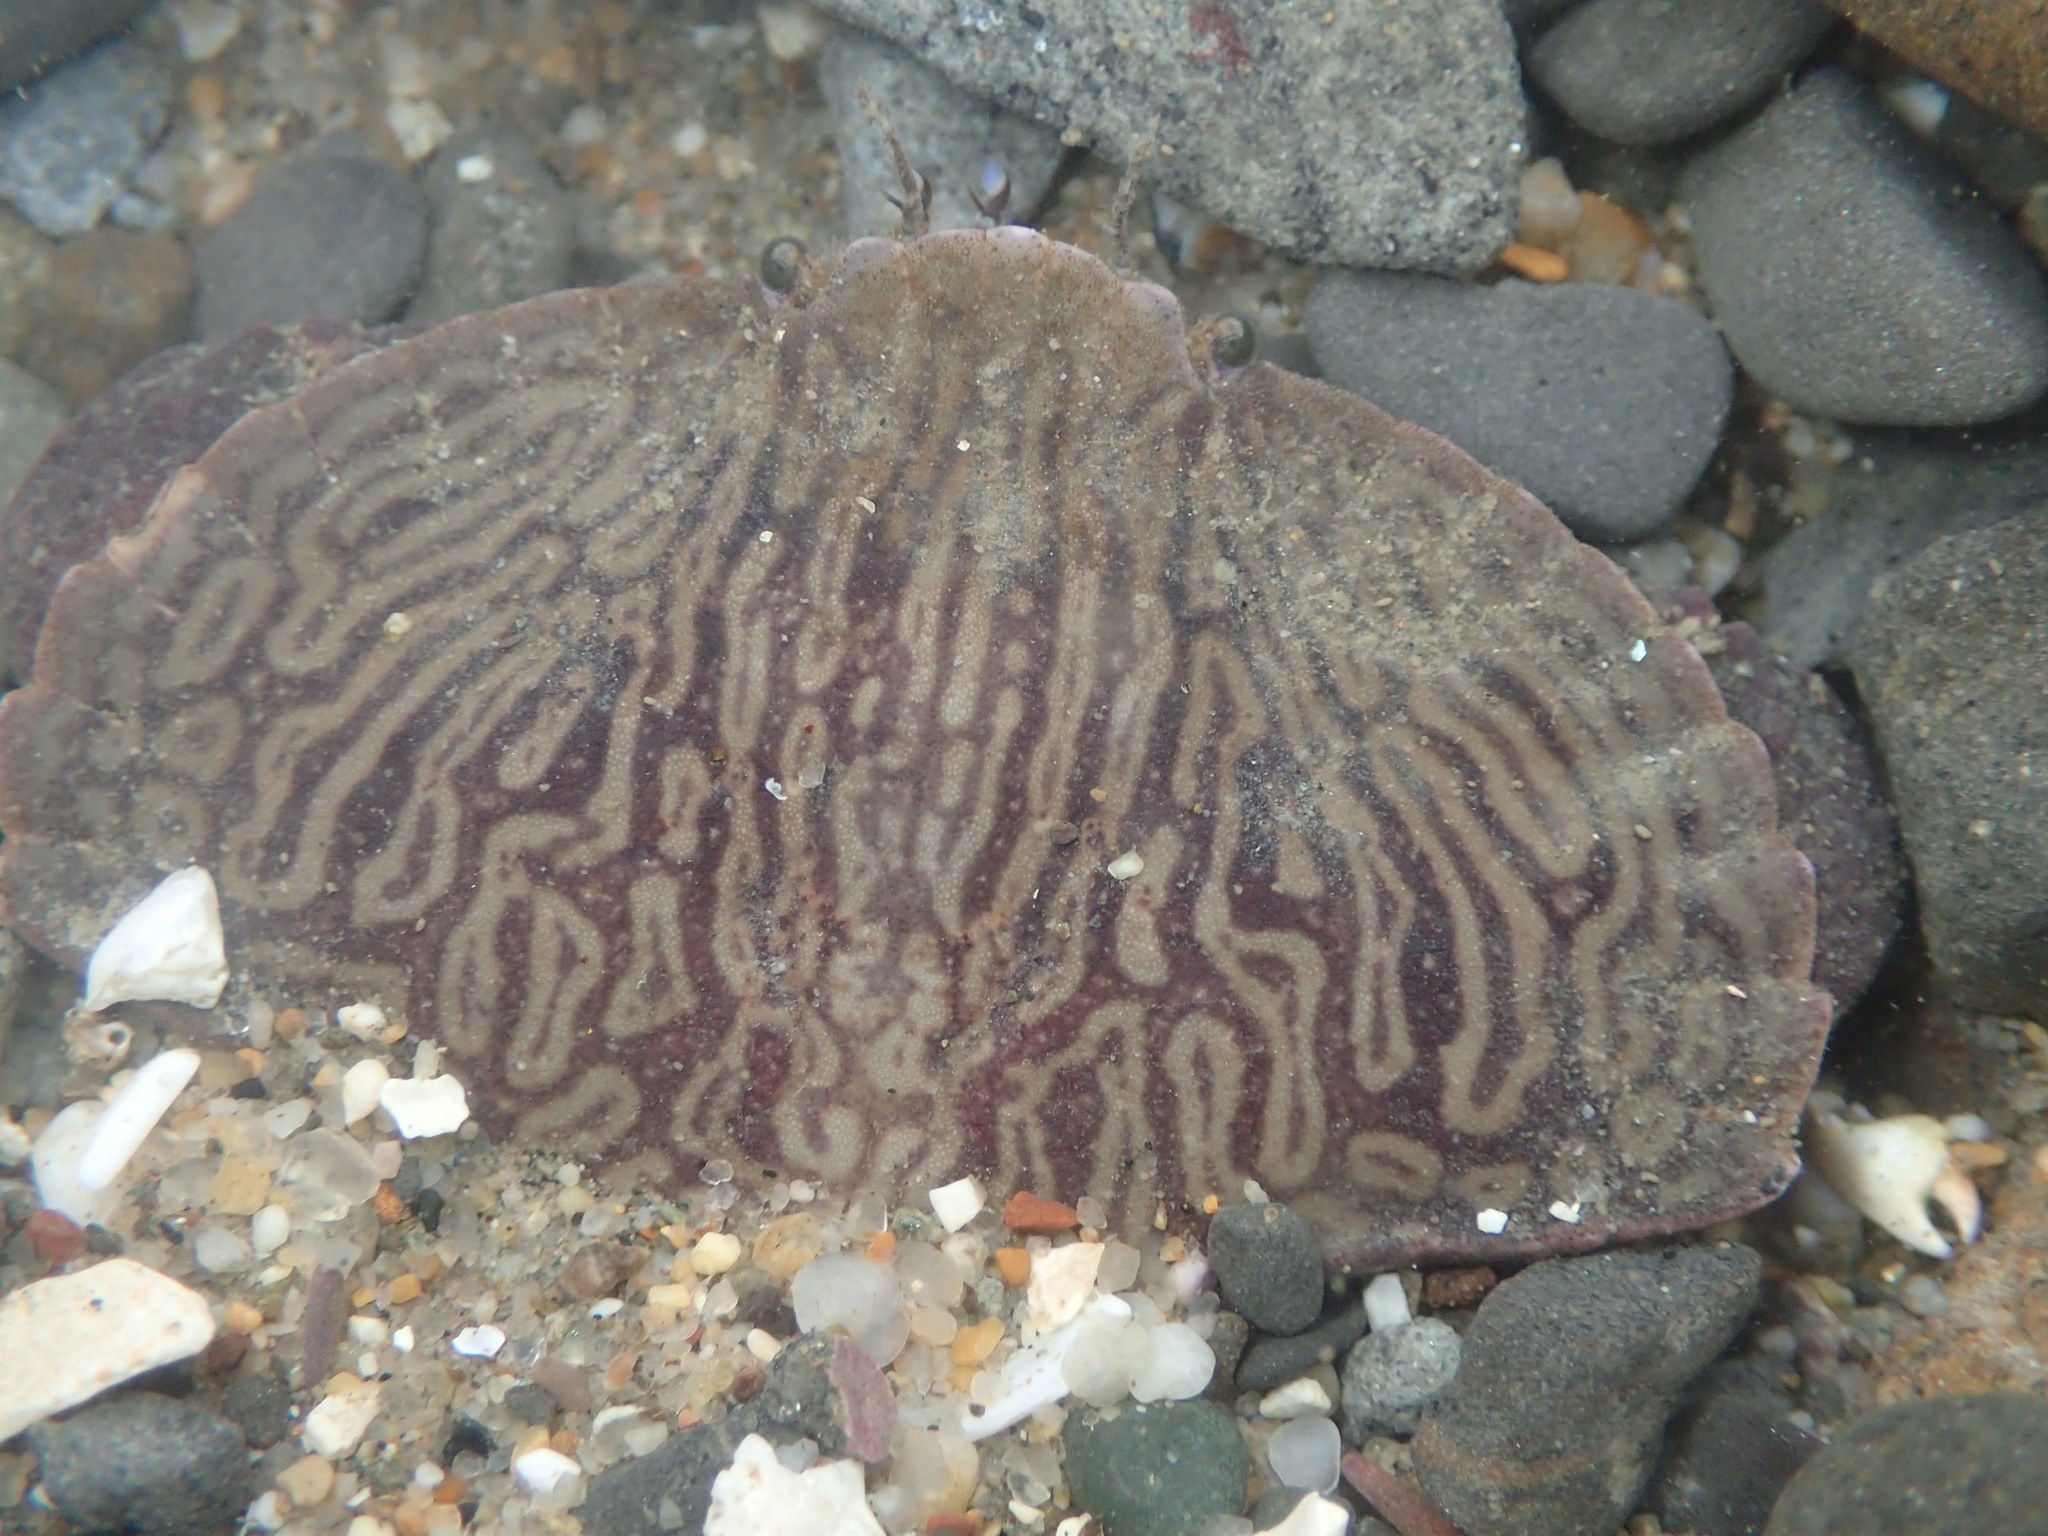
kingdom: Animalia
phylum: Arthropoda
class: Malacostraca
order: Decapoda
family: Cancridae
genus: Cancer
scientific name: Cancer productus
